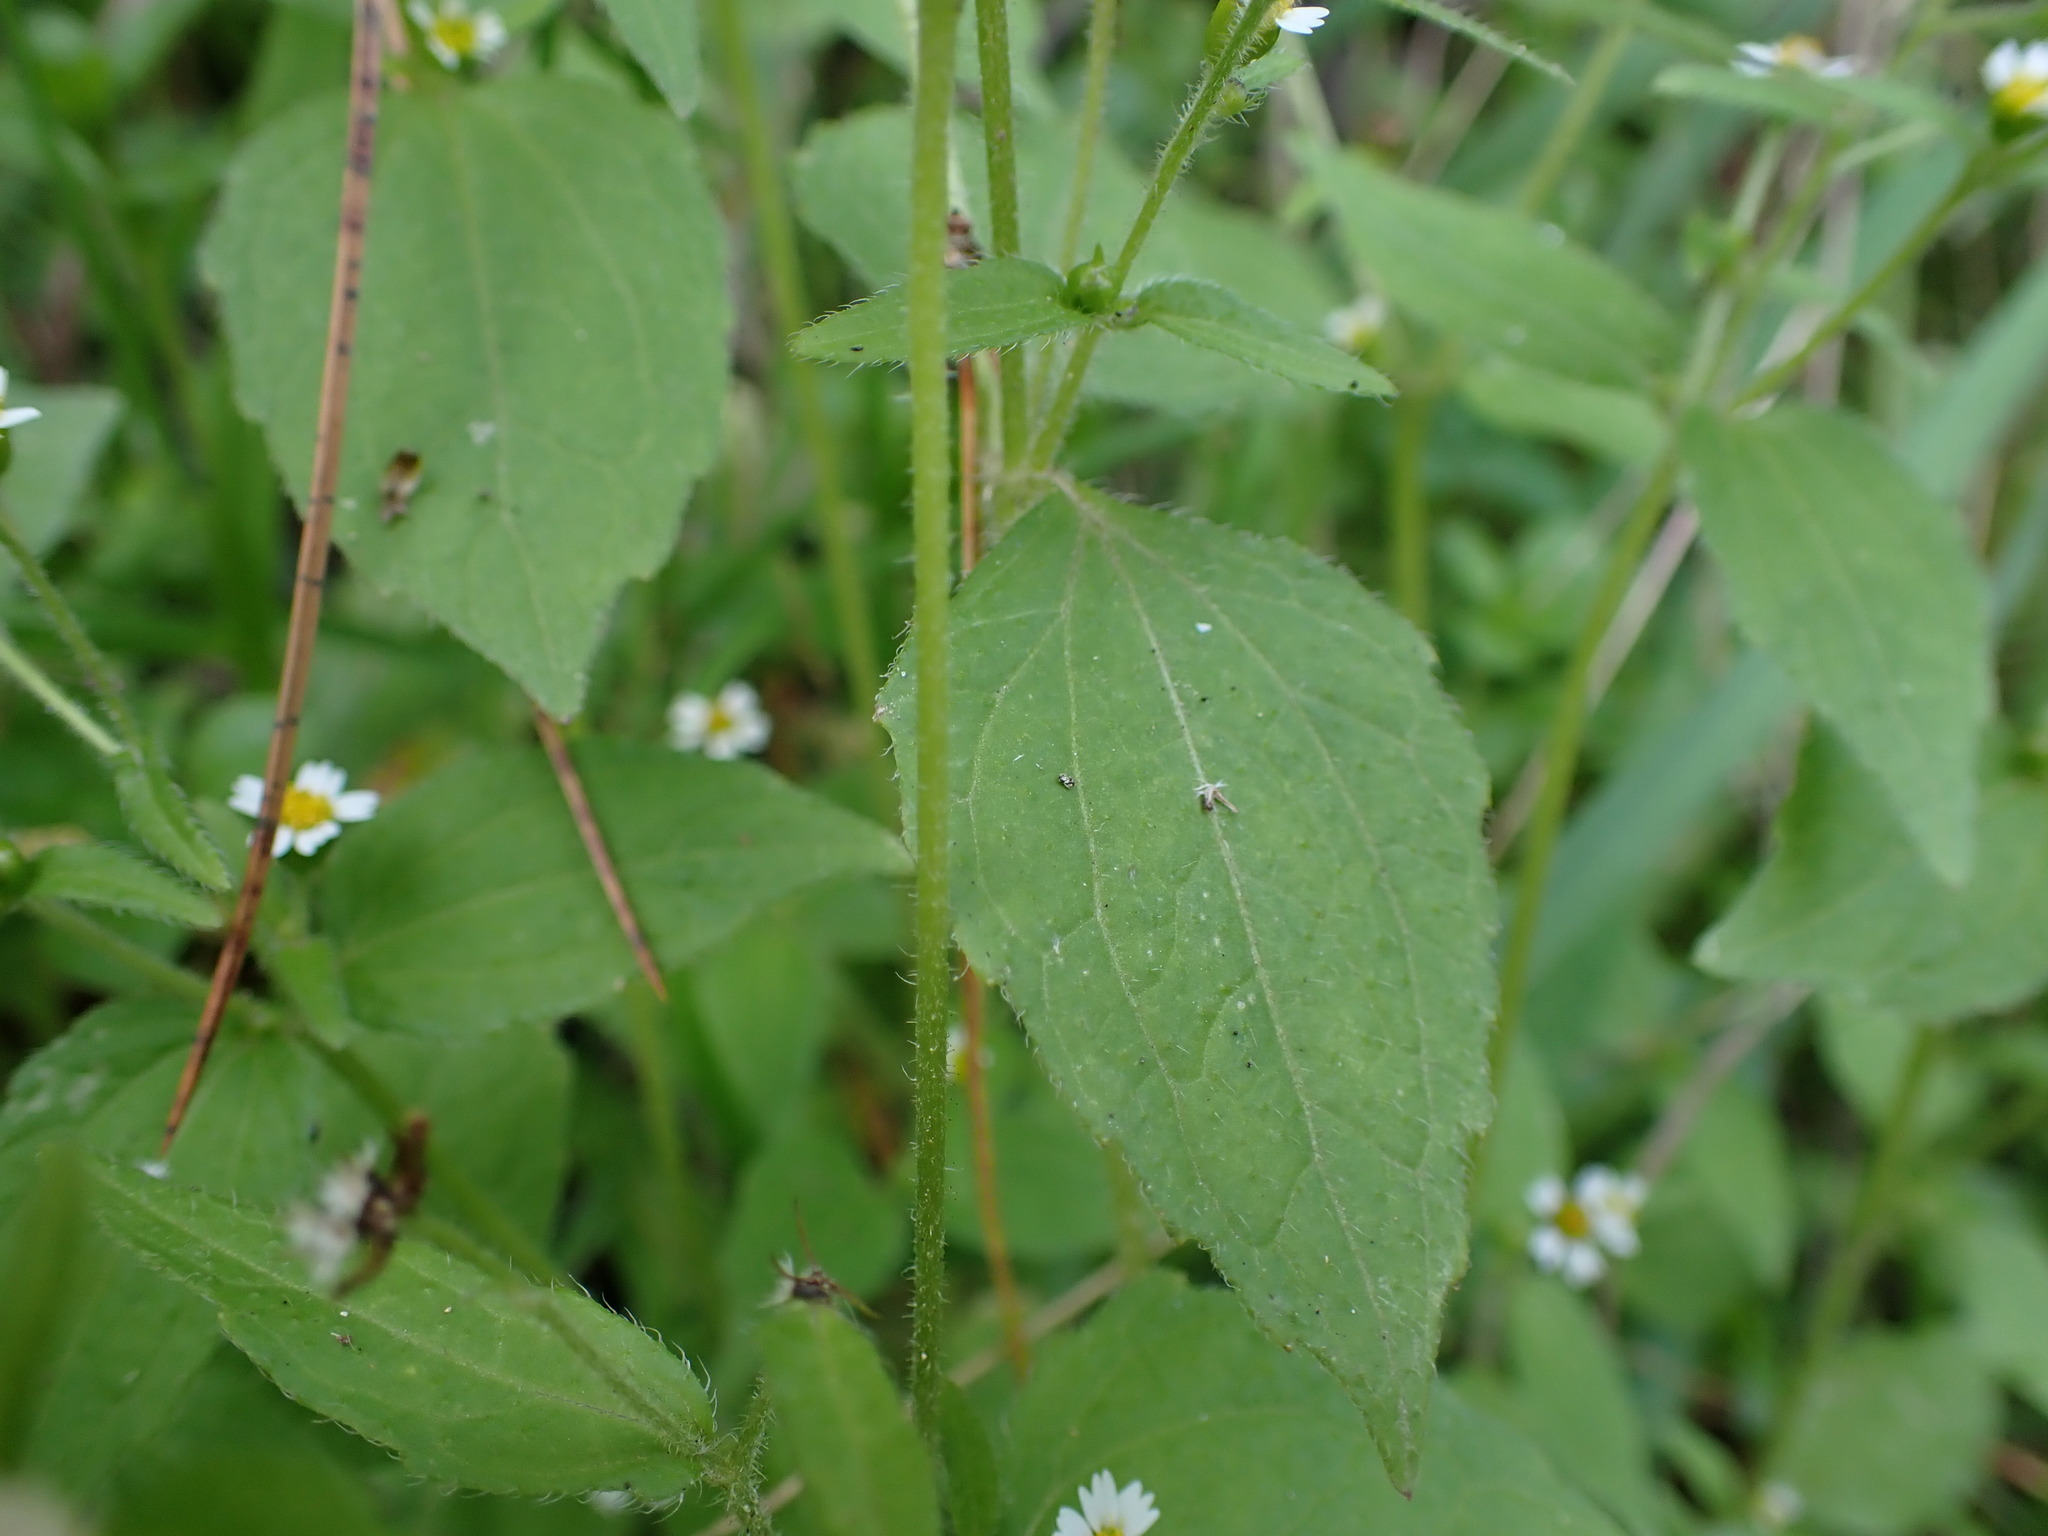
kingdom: Plantae
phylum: Tracheophyta
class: Magnoliopsida
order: Asterales
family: Asteraceae
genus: Galinsoga
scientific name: Galinsoga quadriradiata
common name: Shaggy soldier
